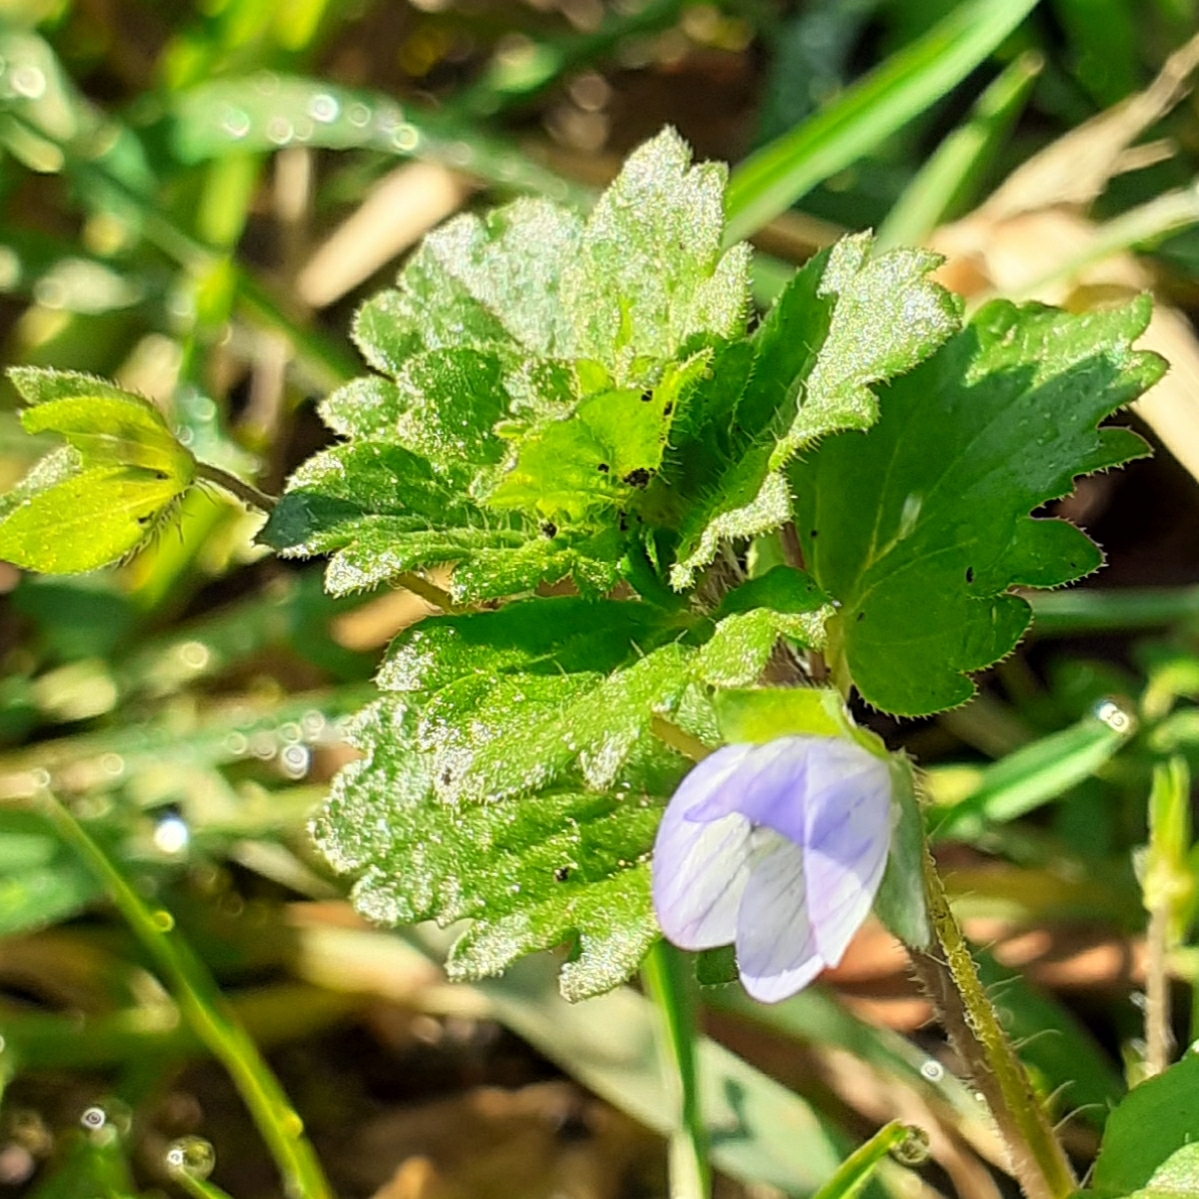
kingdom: Plantae
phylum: Tracheophyta
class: Magnoliopsida
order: Lamiales
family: Plantaginaceae
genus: Veronica
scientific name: Veronica persica
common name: Common field-speedwell
